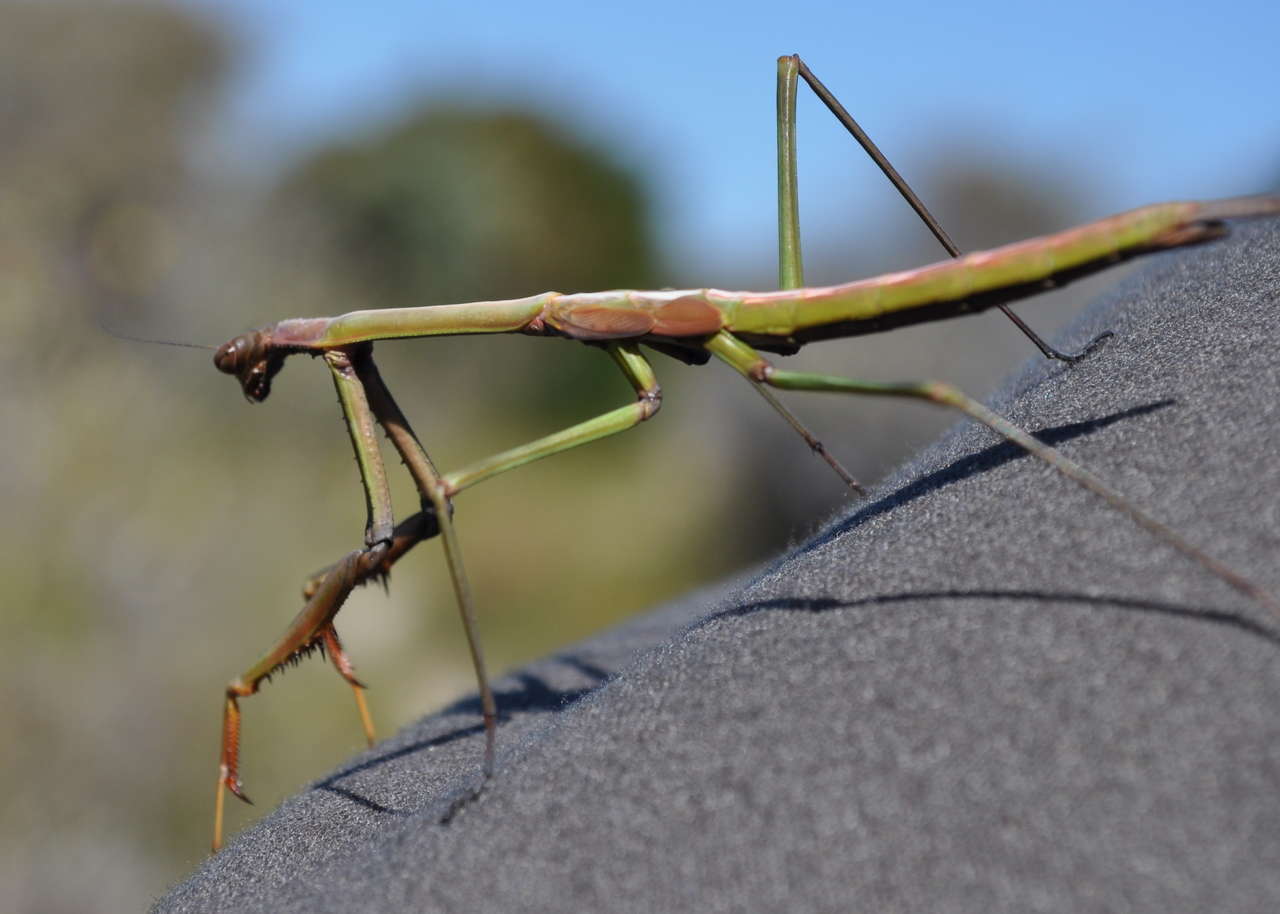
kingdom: Animalia
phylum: Arthropoda
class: Insecta
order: Mantodea
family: Mantidae
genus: Archimantis
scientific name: Archimantis latistyla
